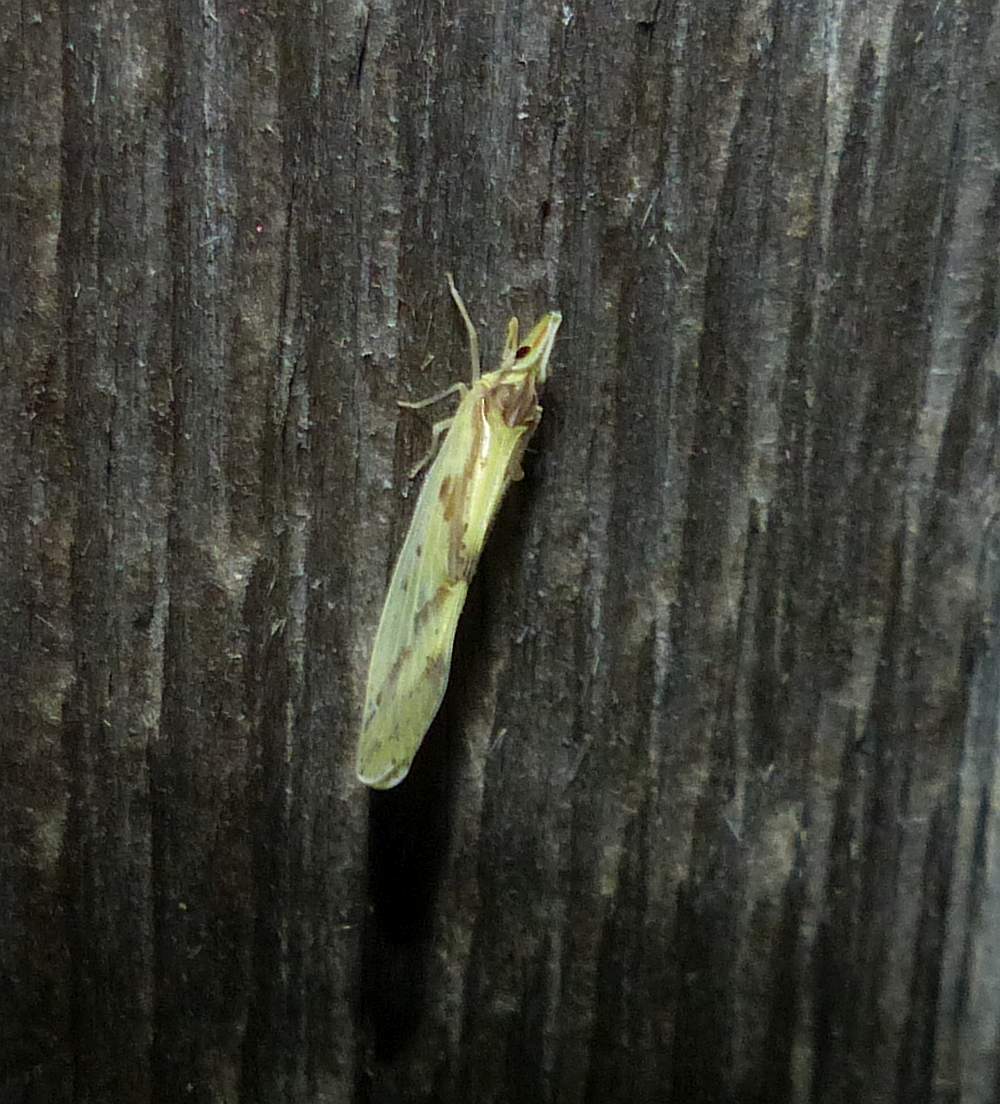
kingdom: Animalia
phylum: Arthropoda
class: Insecta
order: Hemiptera
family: Derbidae
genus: Otiocerus
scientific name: Otiocerus wolfii
